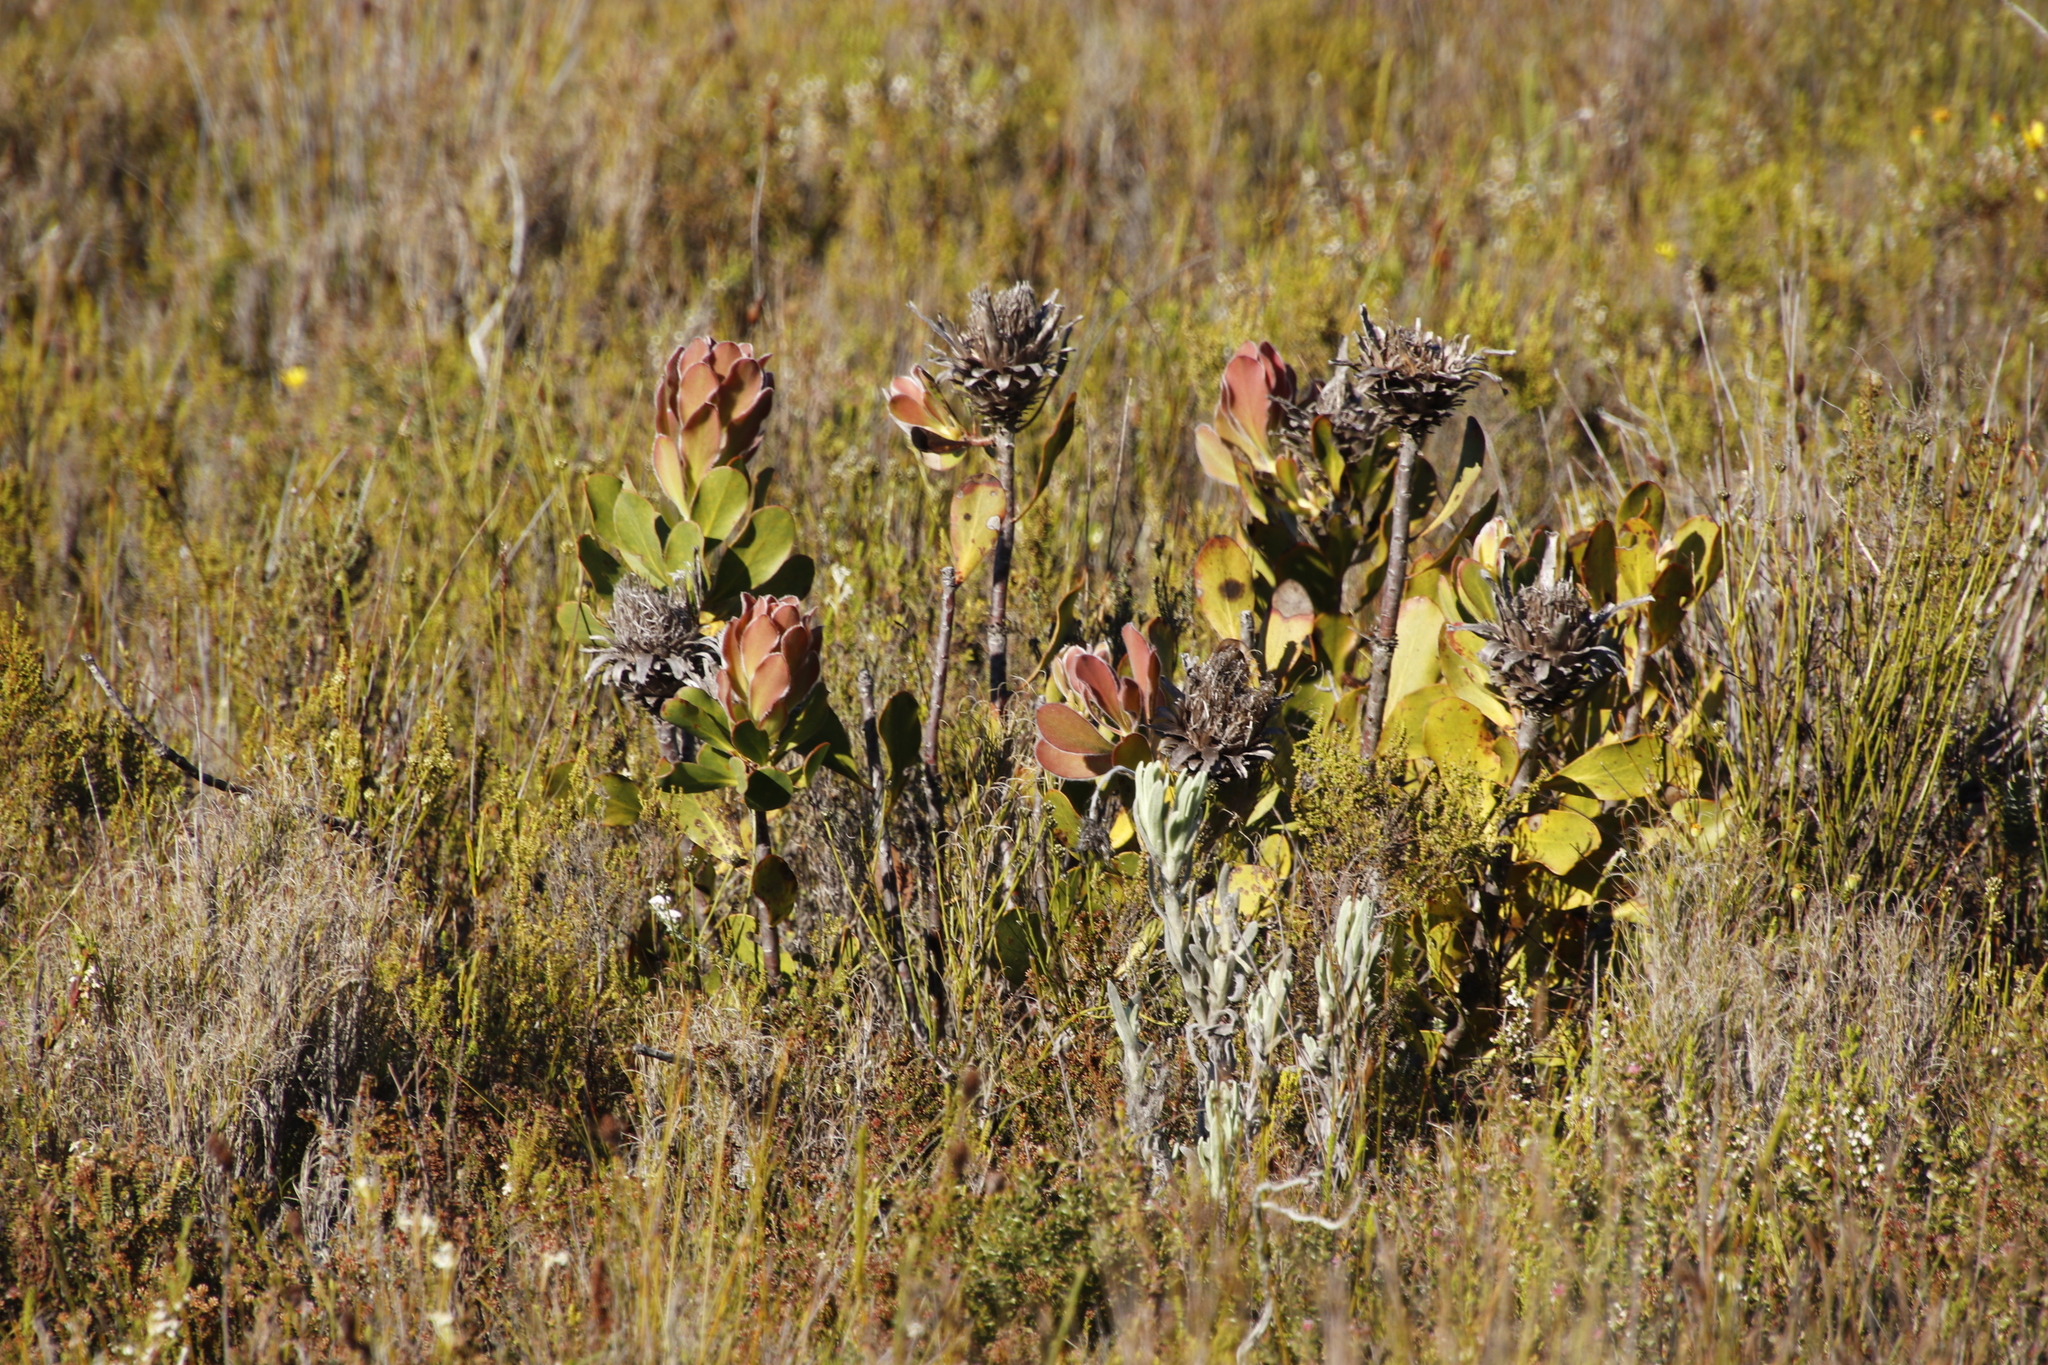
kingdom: Plantae
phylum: Tracheophyta
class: Magnoliopsida
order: Proteales
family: Proteaceae
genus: Protea
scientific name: Protea speciosa
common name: Brown-beard sugarbush
